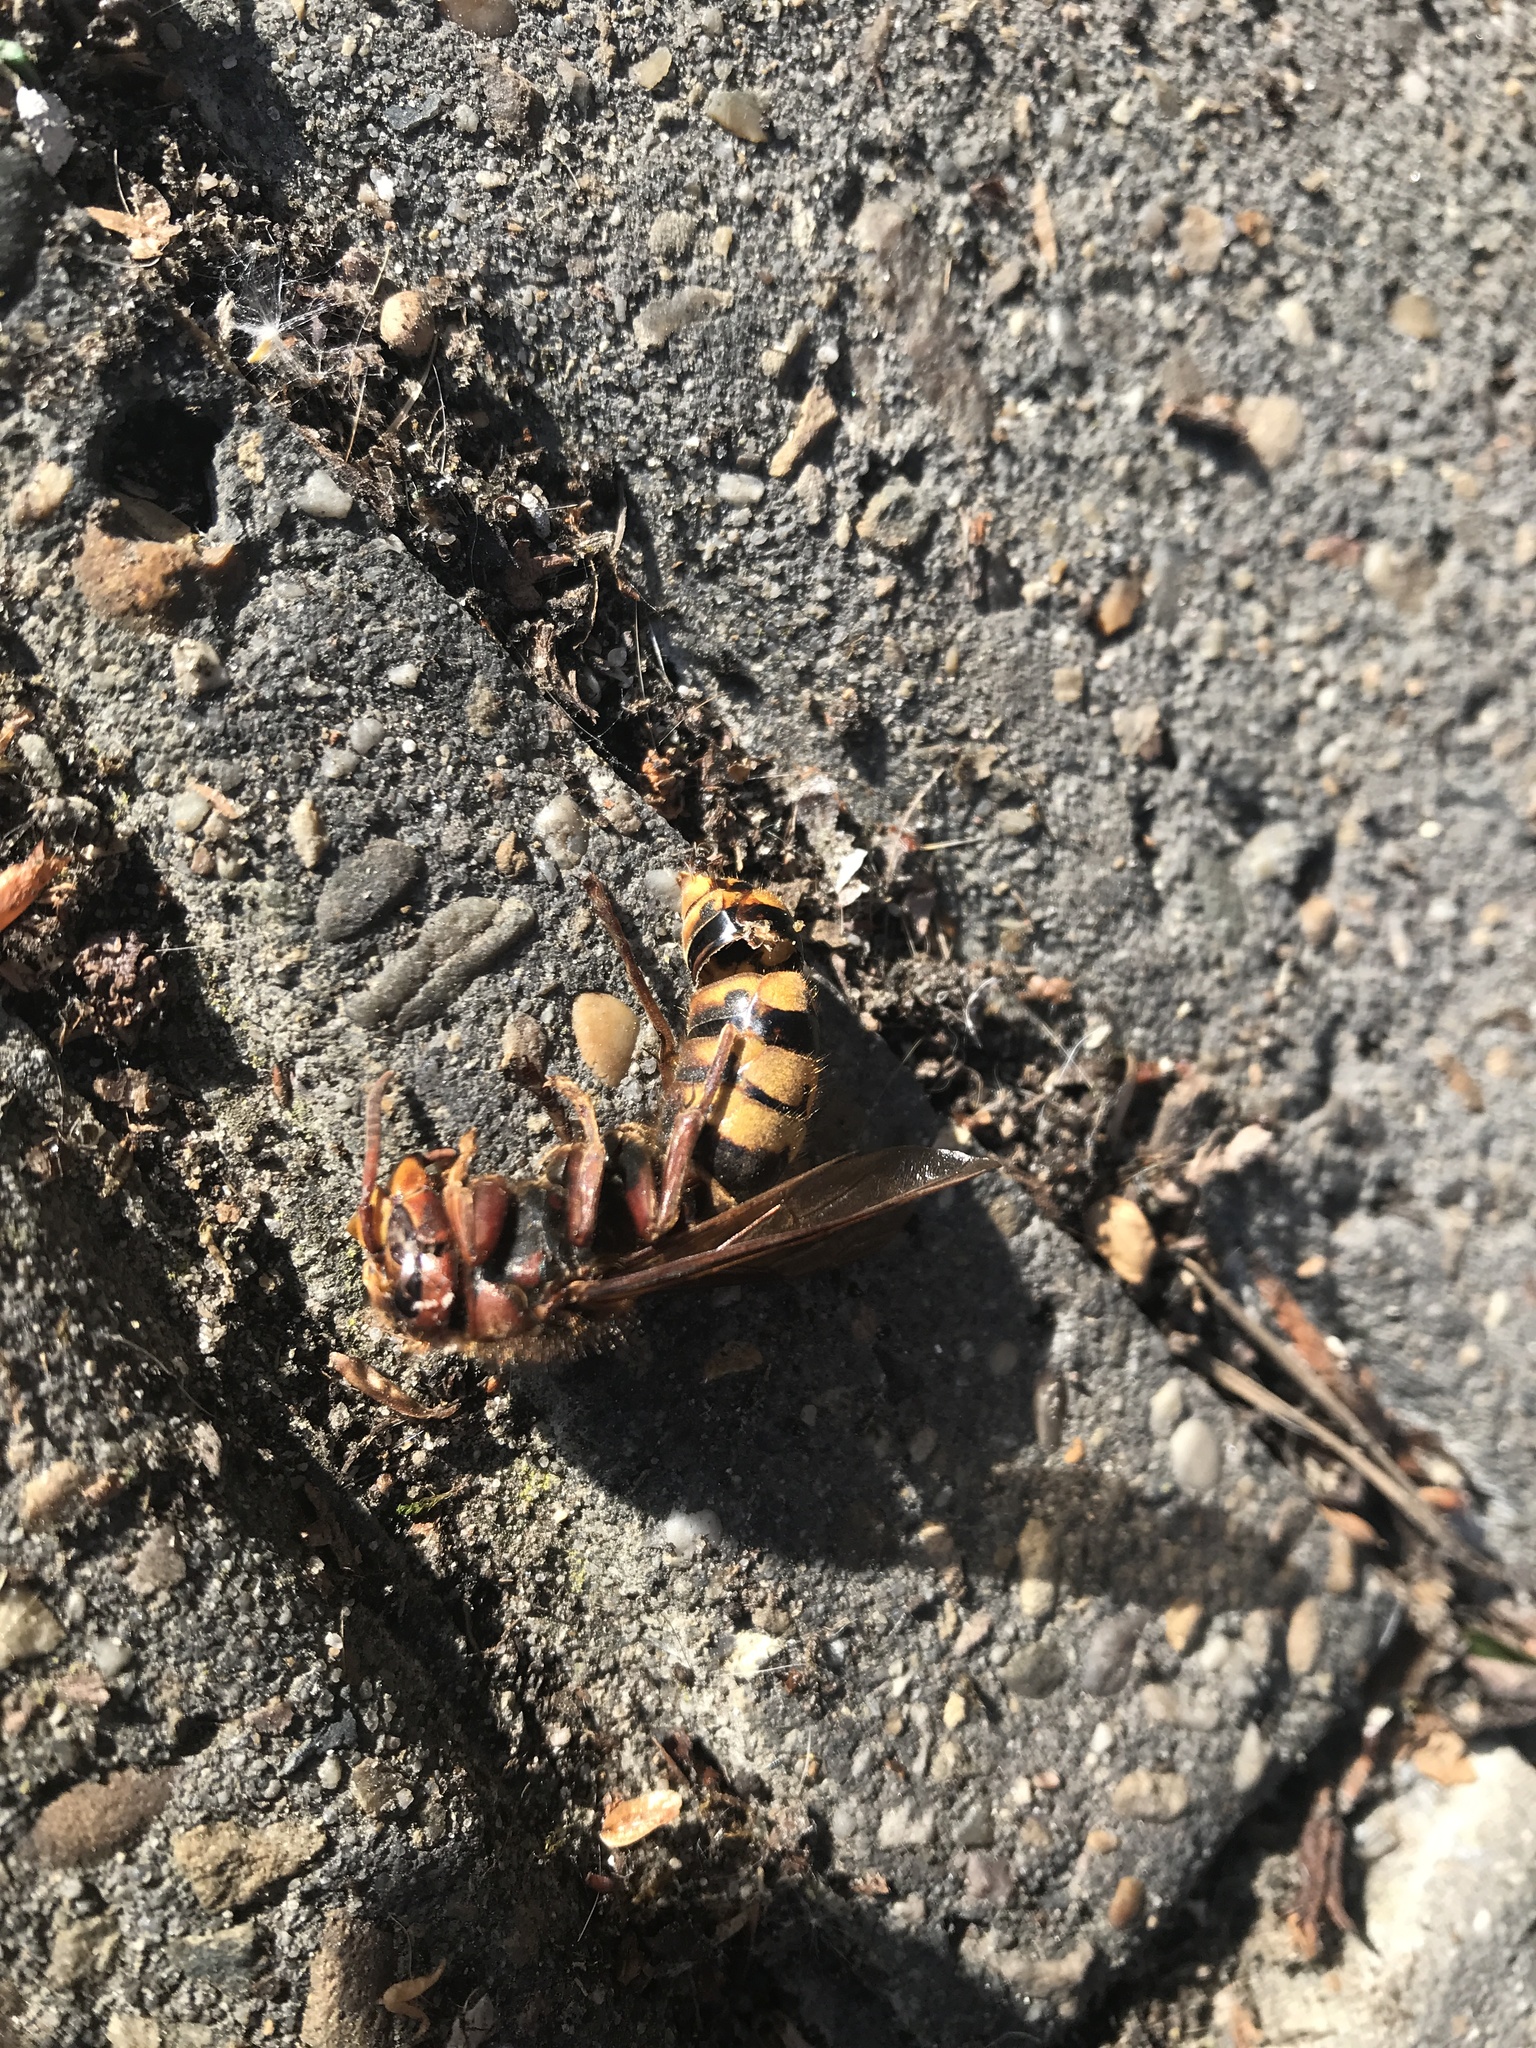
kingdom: Animalia
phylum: Arthropoda
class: Insecta
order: Hymenoptera
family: Vespidae
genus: Vespa
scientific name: Vespa crabro
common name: Hornet
